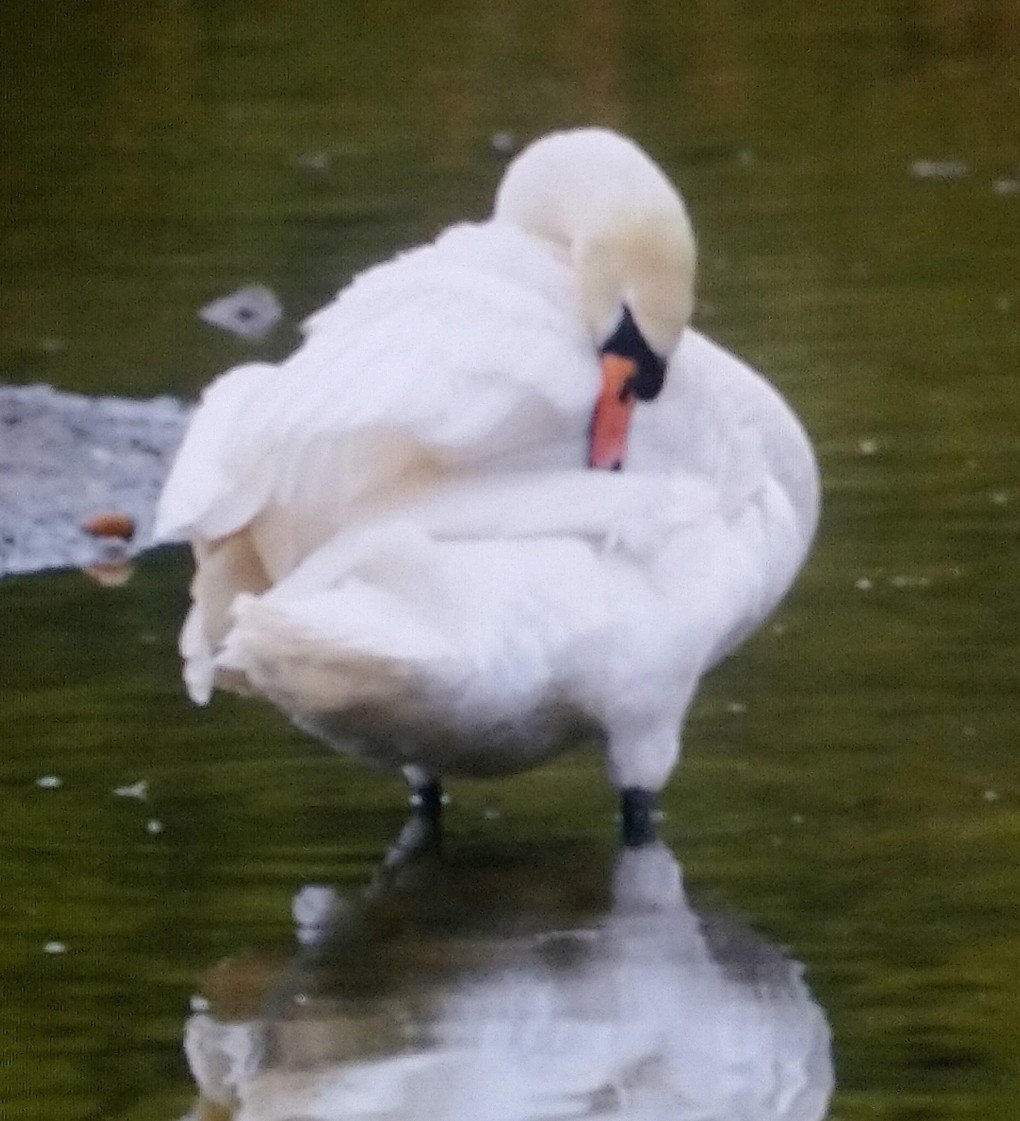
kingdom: Animalia
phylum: Chordata
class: Aves
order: Anseriformes
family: Anatidae
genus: Cygnus
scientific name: Cygnus olor
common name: Mute swan
